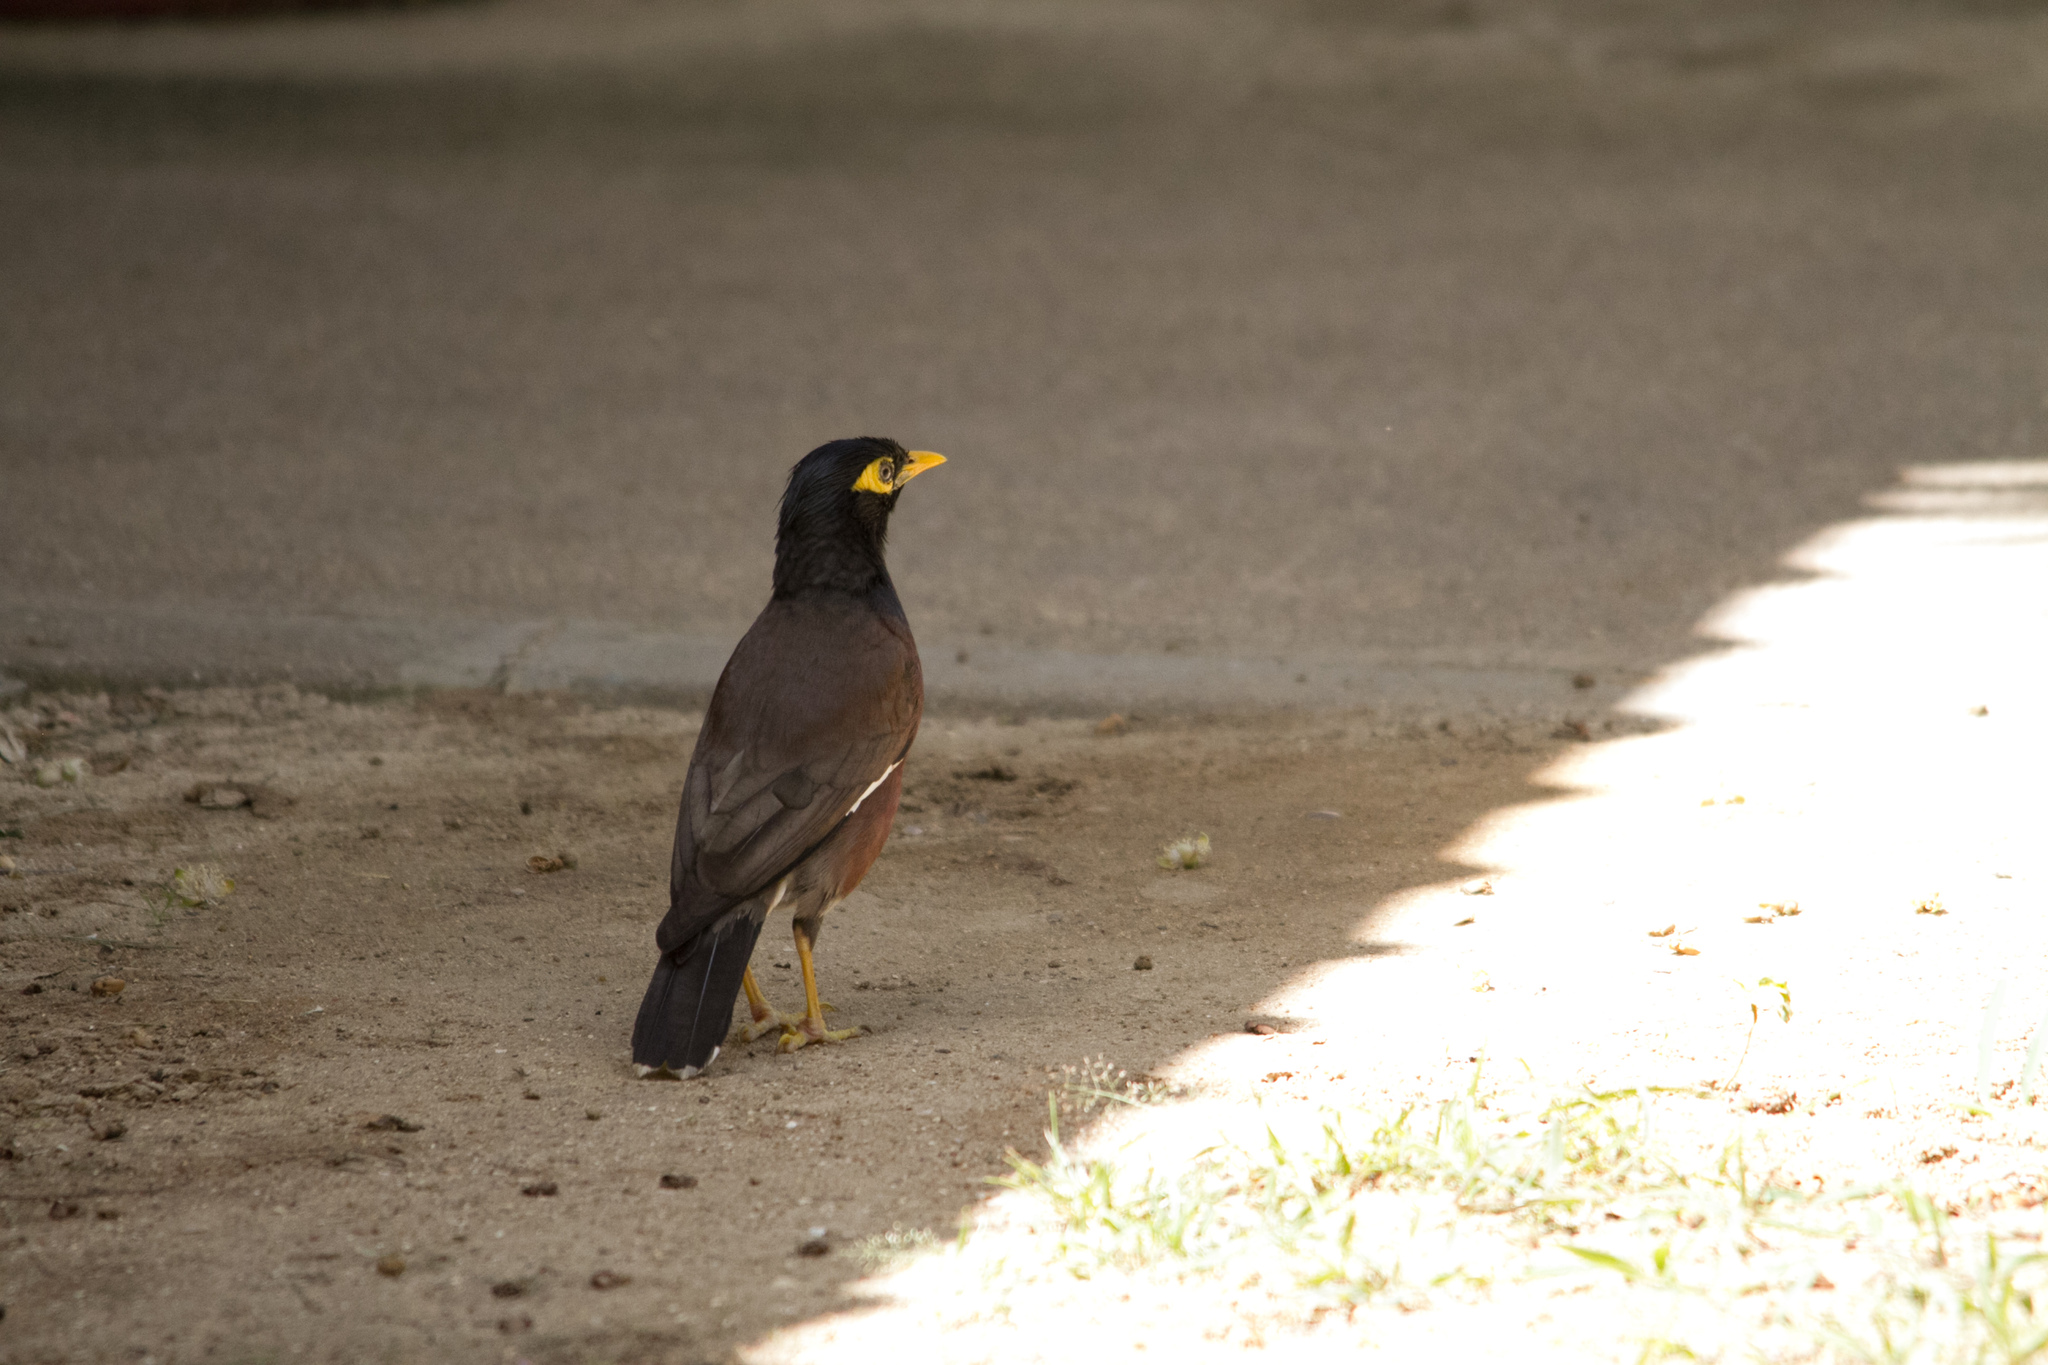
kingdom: Animalia
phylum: Chordata
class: Aves
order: Passeriformes
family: Sturnidae
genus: Acridotheres
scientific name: Acridotheres tristis
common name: Common myna
